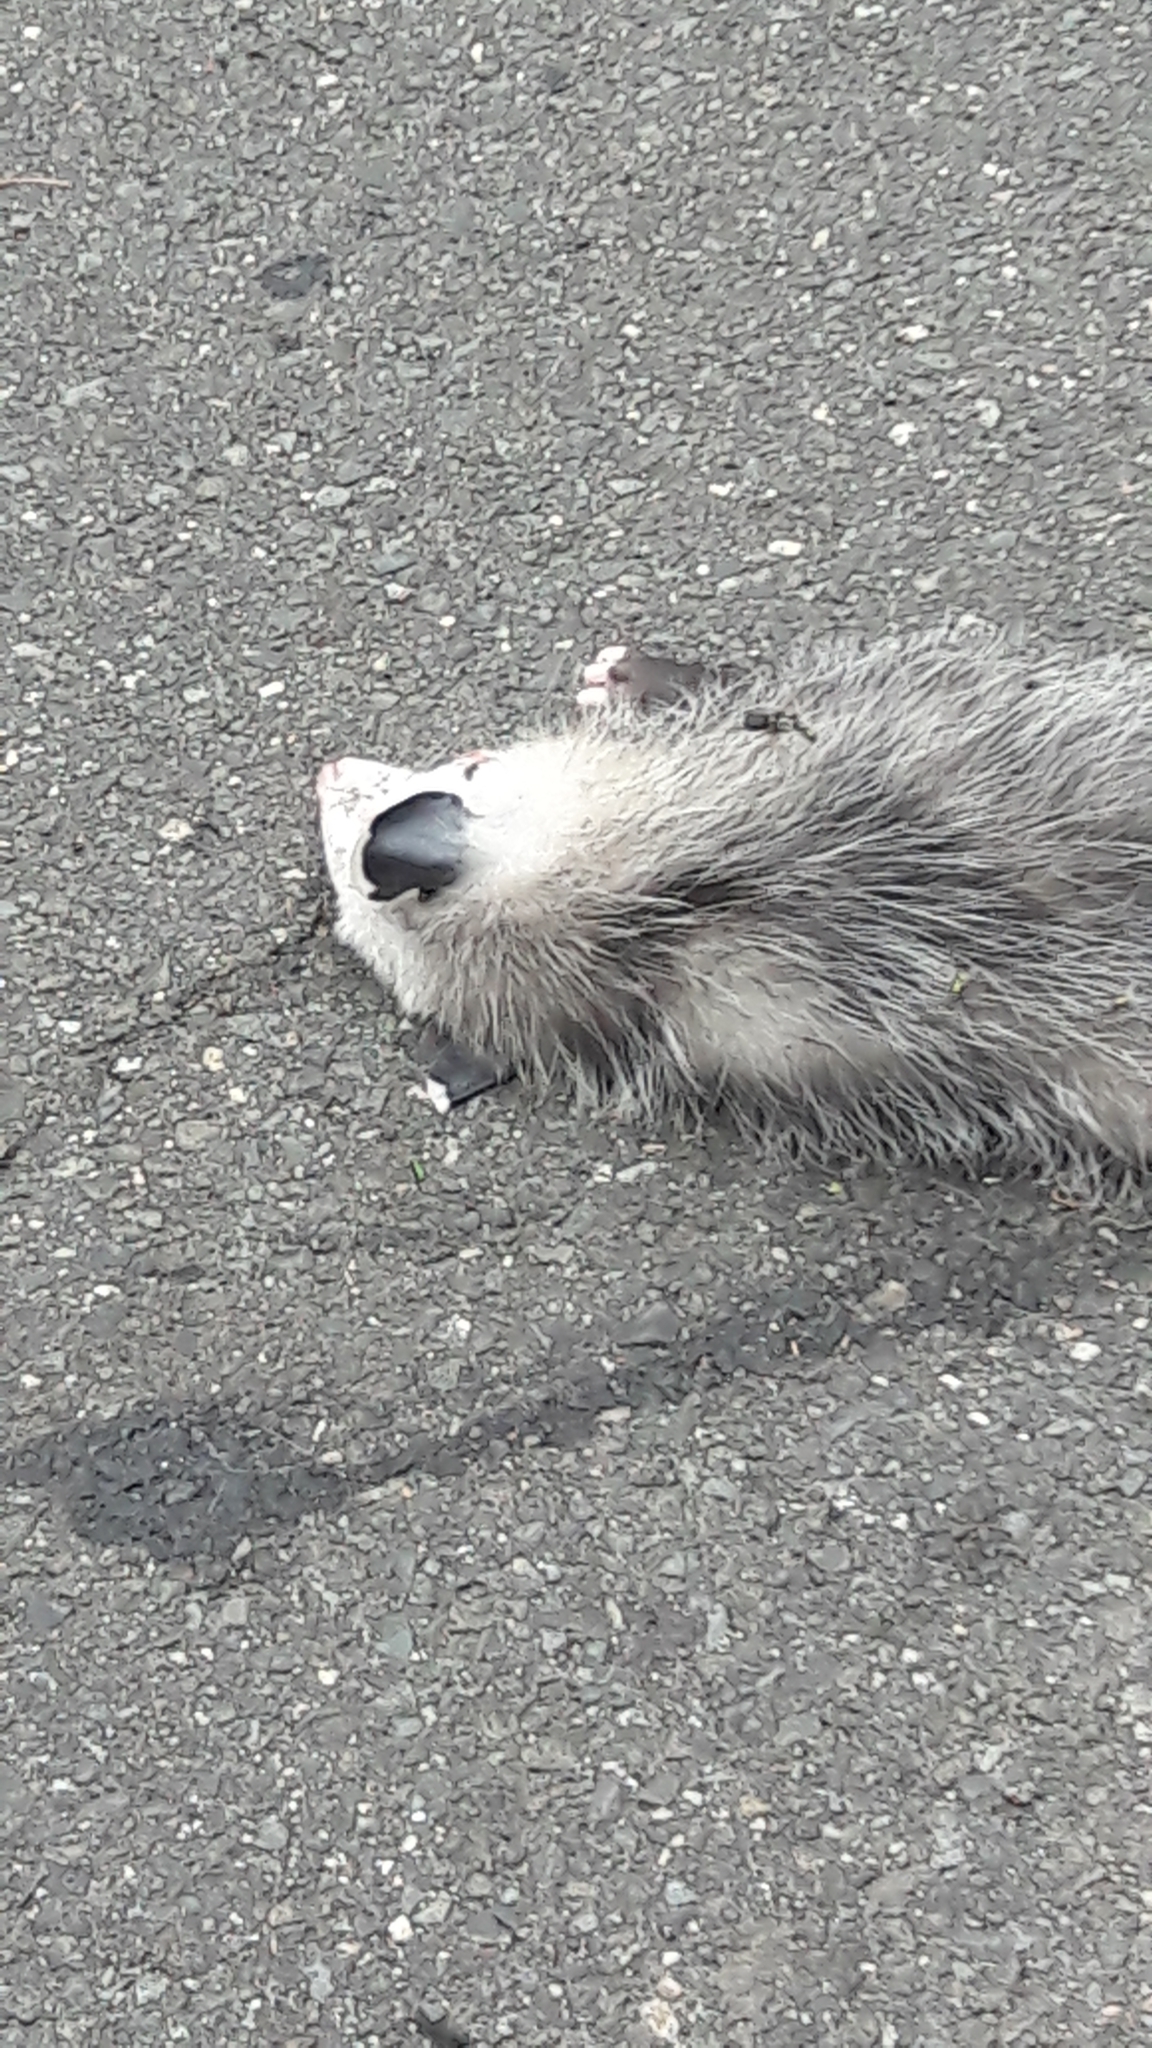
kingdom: Animalia
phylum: Chordata
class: Mammalia
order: Didelphimorphia
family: Didelphidae
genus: Didelphis
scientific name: Didelphis virginiana
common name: Virginia opossum
